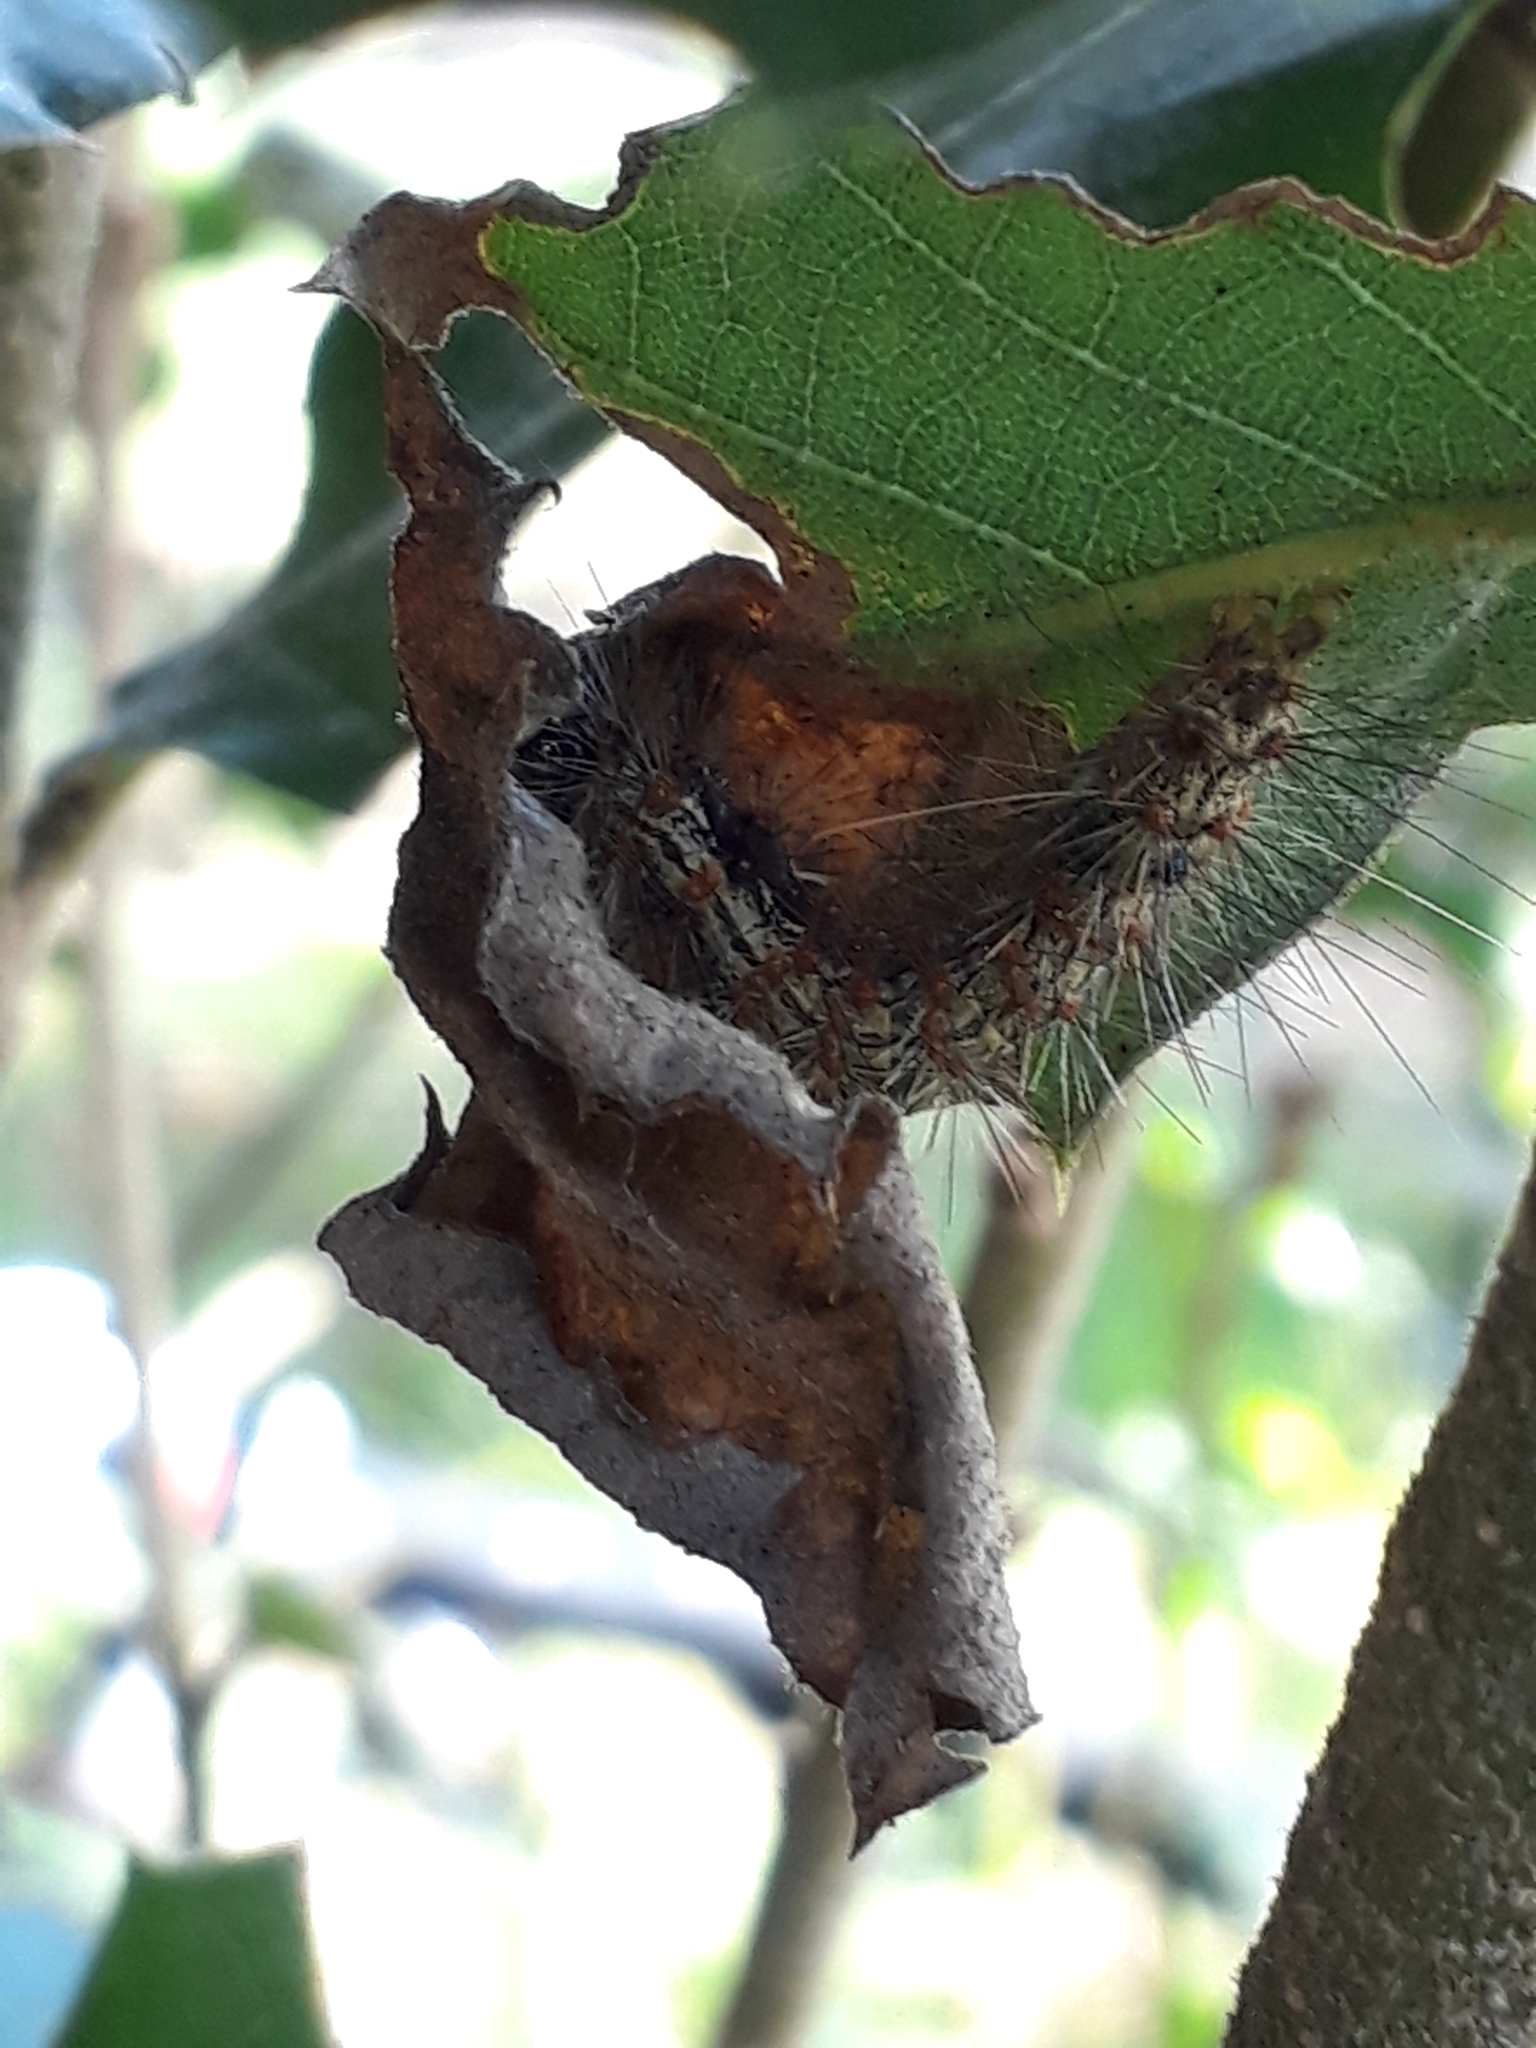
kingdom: Animalia
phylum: Arthropoda
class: Insecta
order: Lepidoptera
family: Erebidae
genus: Dysschema
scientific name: Dysschema sacrifica
